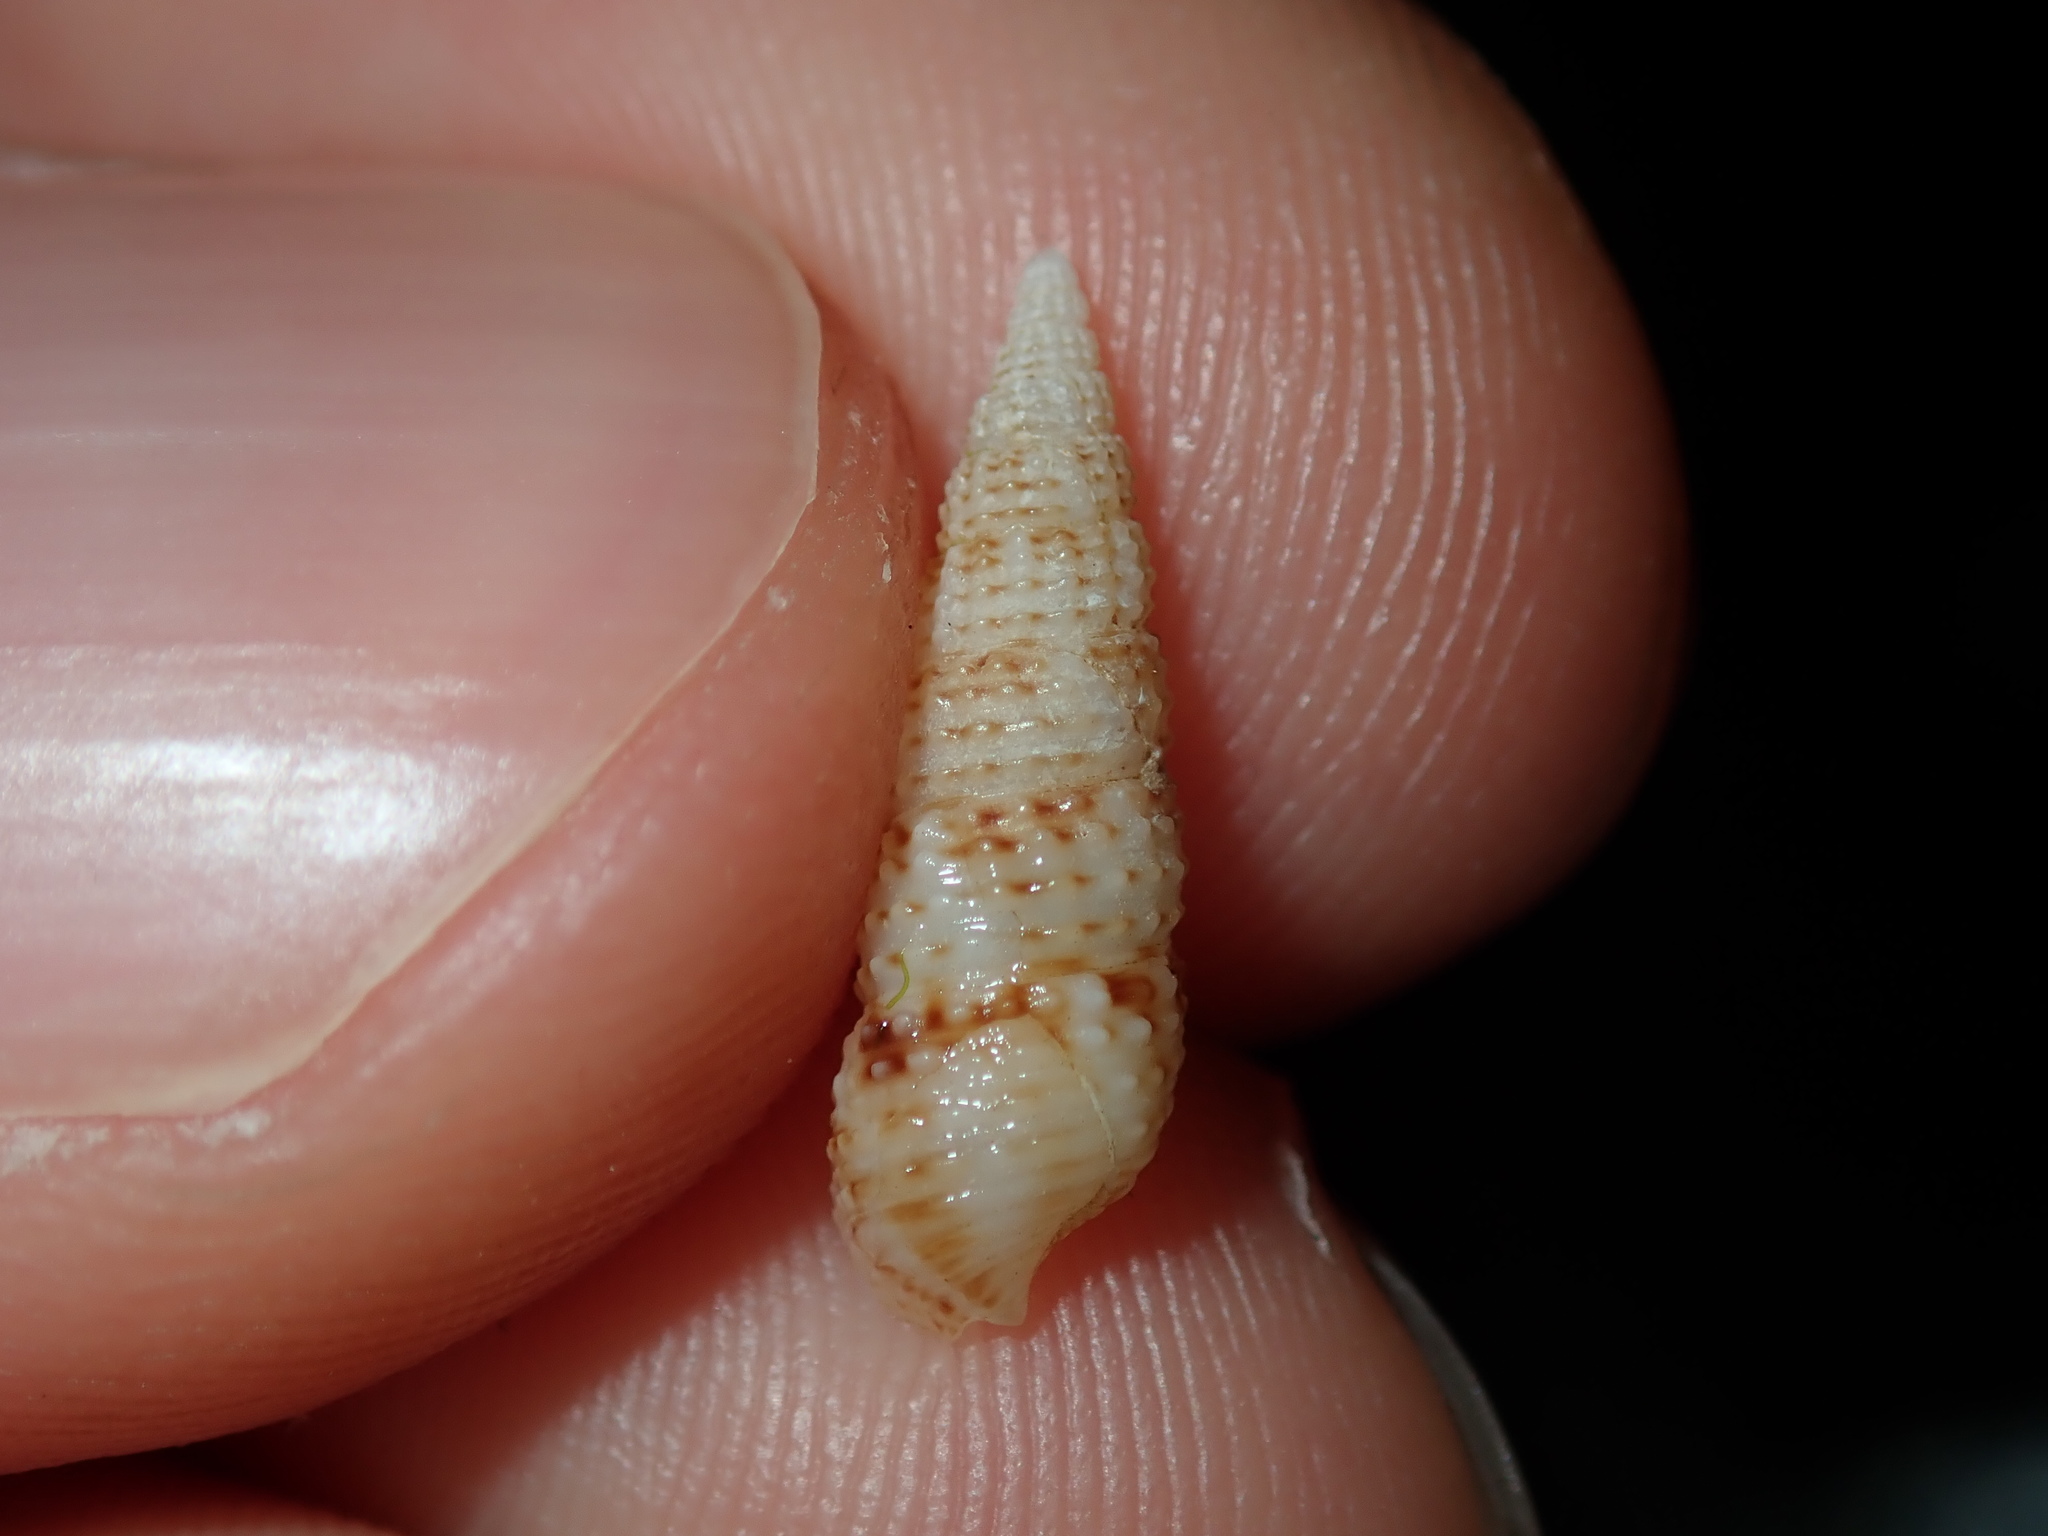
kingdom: Animalia
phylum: Mollusca
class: Gastropoda
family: Cerithiidae
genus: Cacozeliana
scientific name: Cacozeliana granarium
